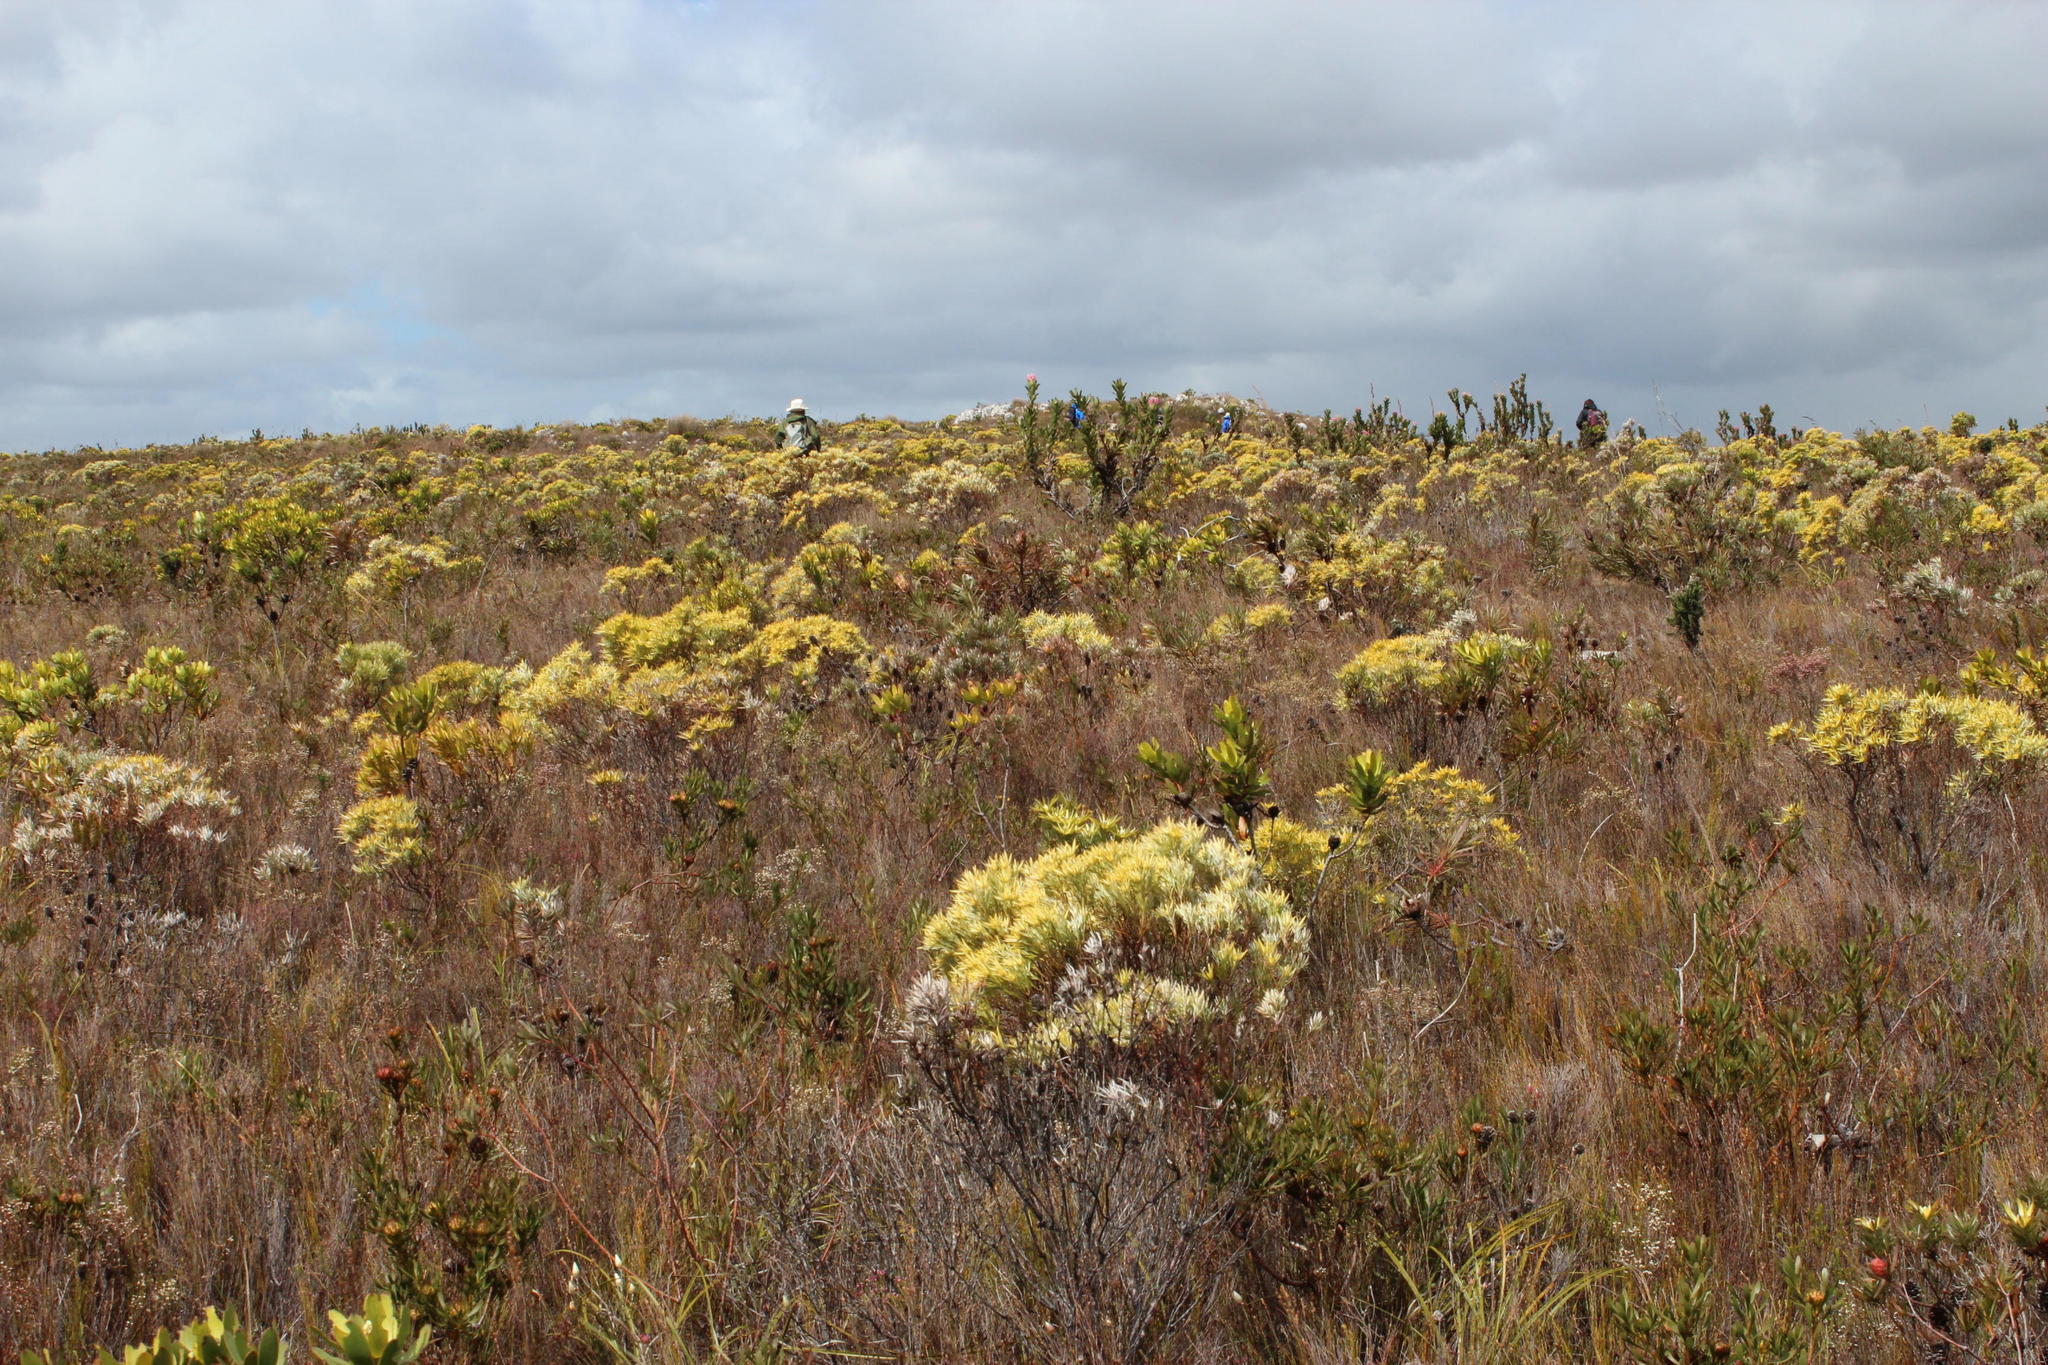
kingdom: Plantae
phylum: Tracheophyta
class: Magnoliopsida
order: Proteales
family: Proteaceae
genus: Leucadendron
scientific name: Leucadendron xanthoconus
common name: Sickle-leaf conebush
